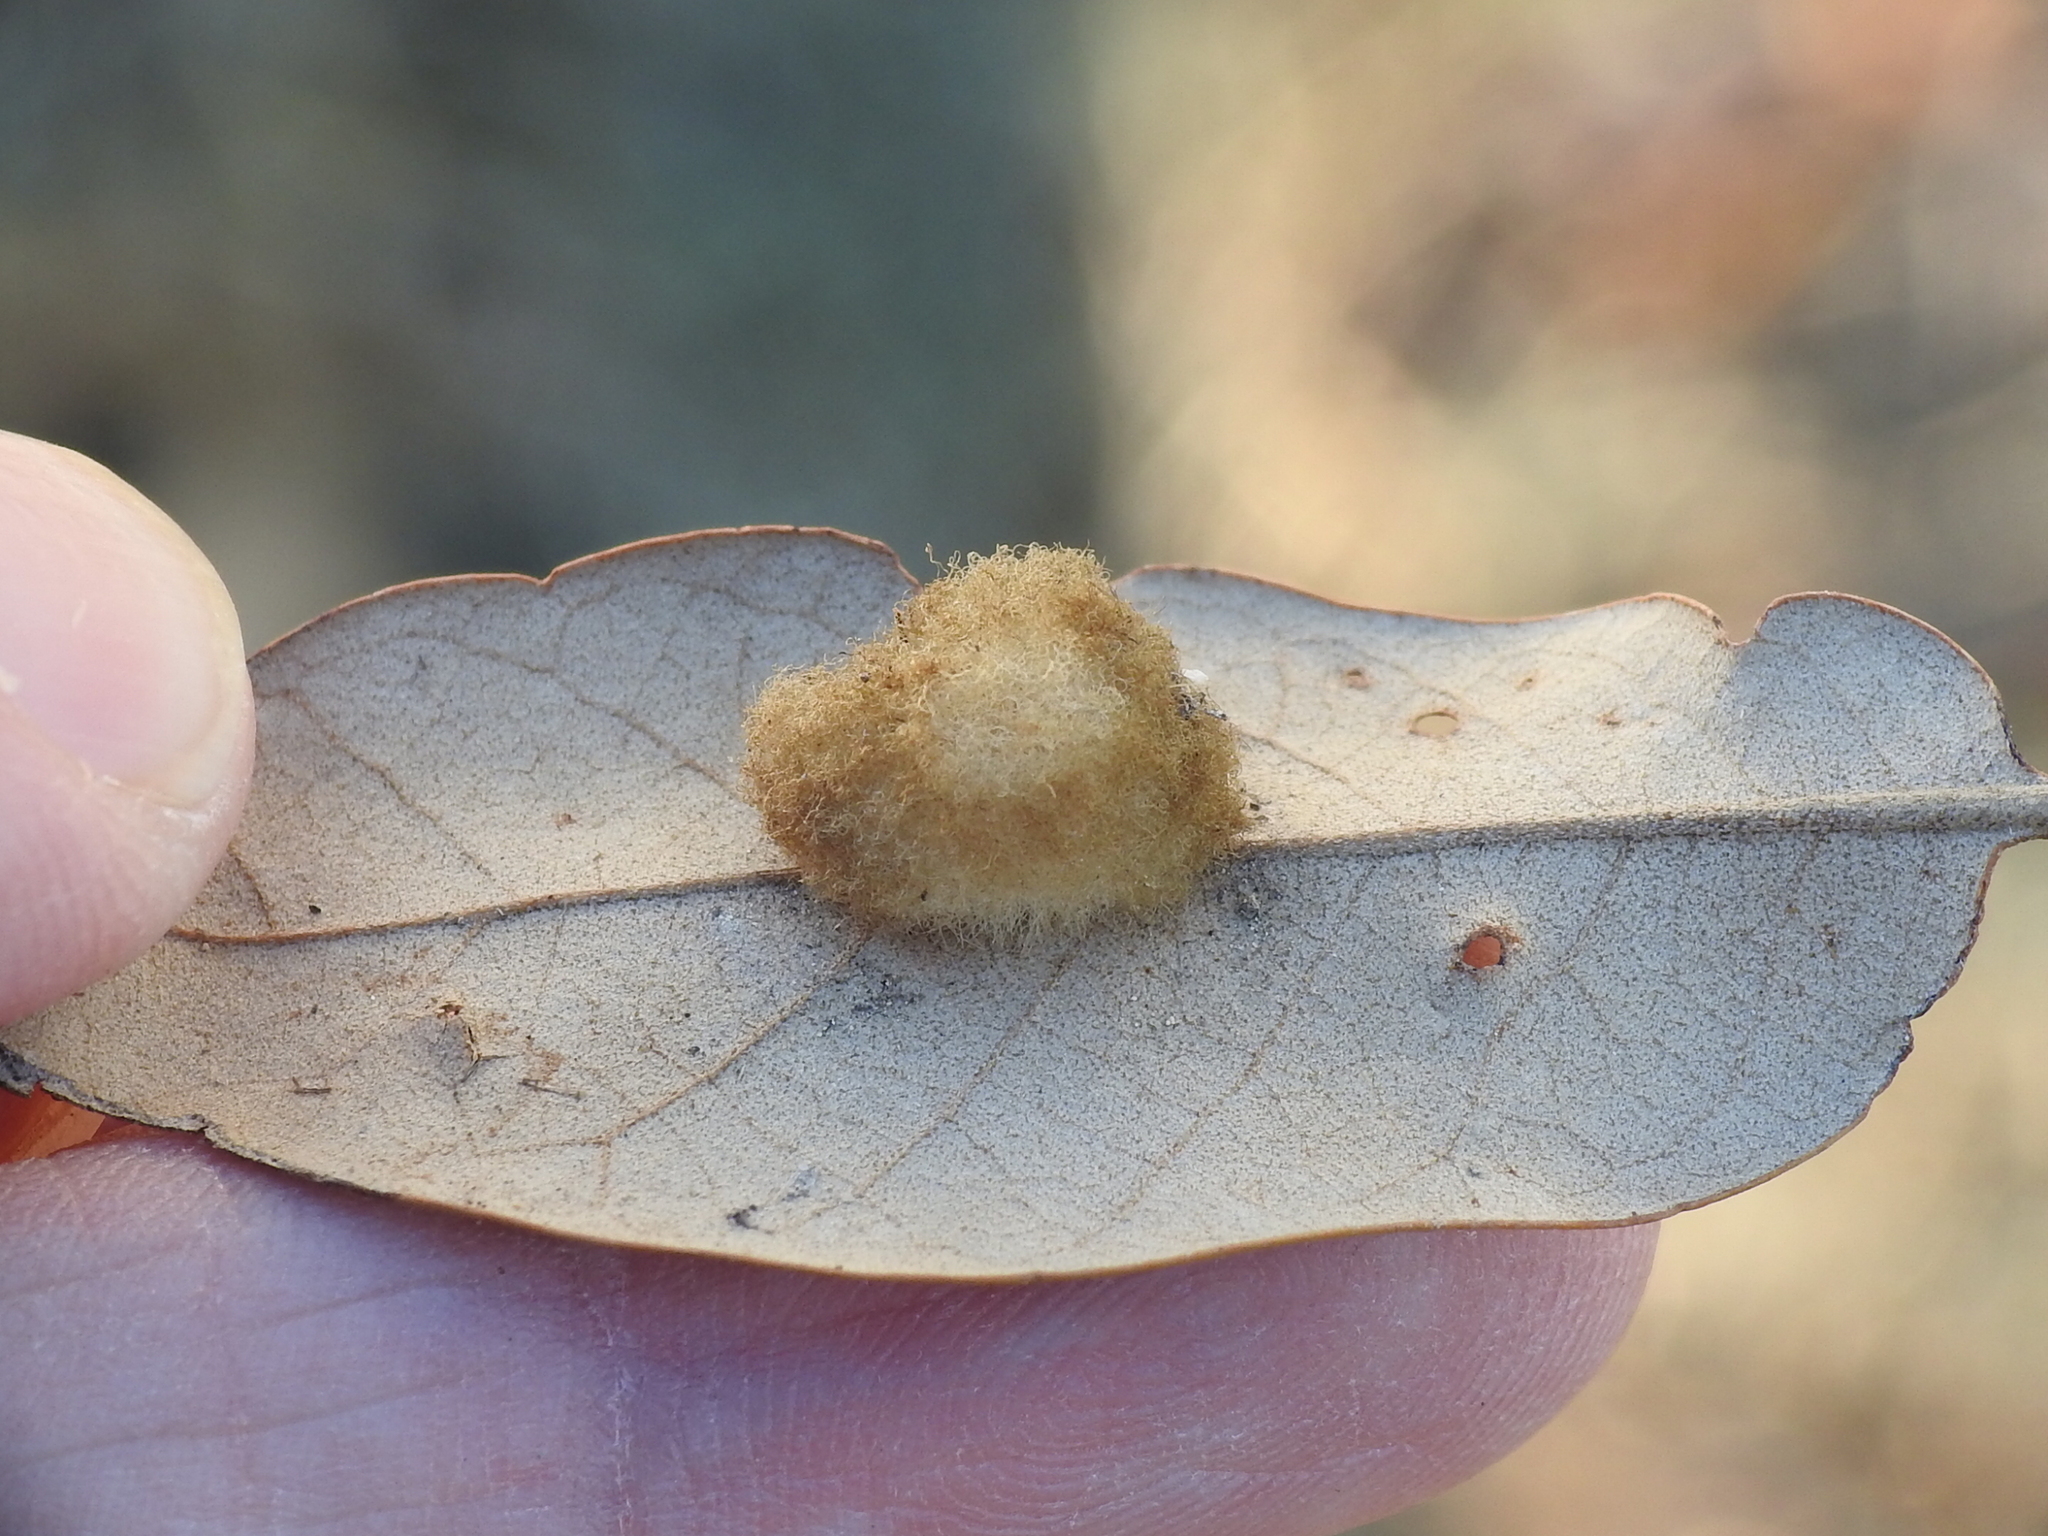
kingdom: Animalia
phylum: Arthropoda
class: Insecta
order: Hymenoptera
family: Cynipidae
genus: Andricus
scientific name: Andricus Druon quercuslanigerum
